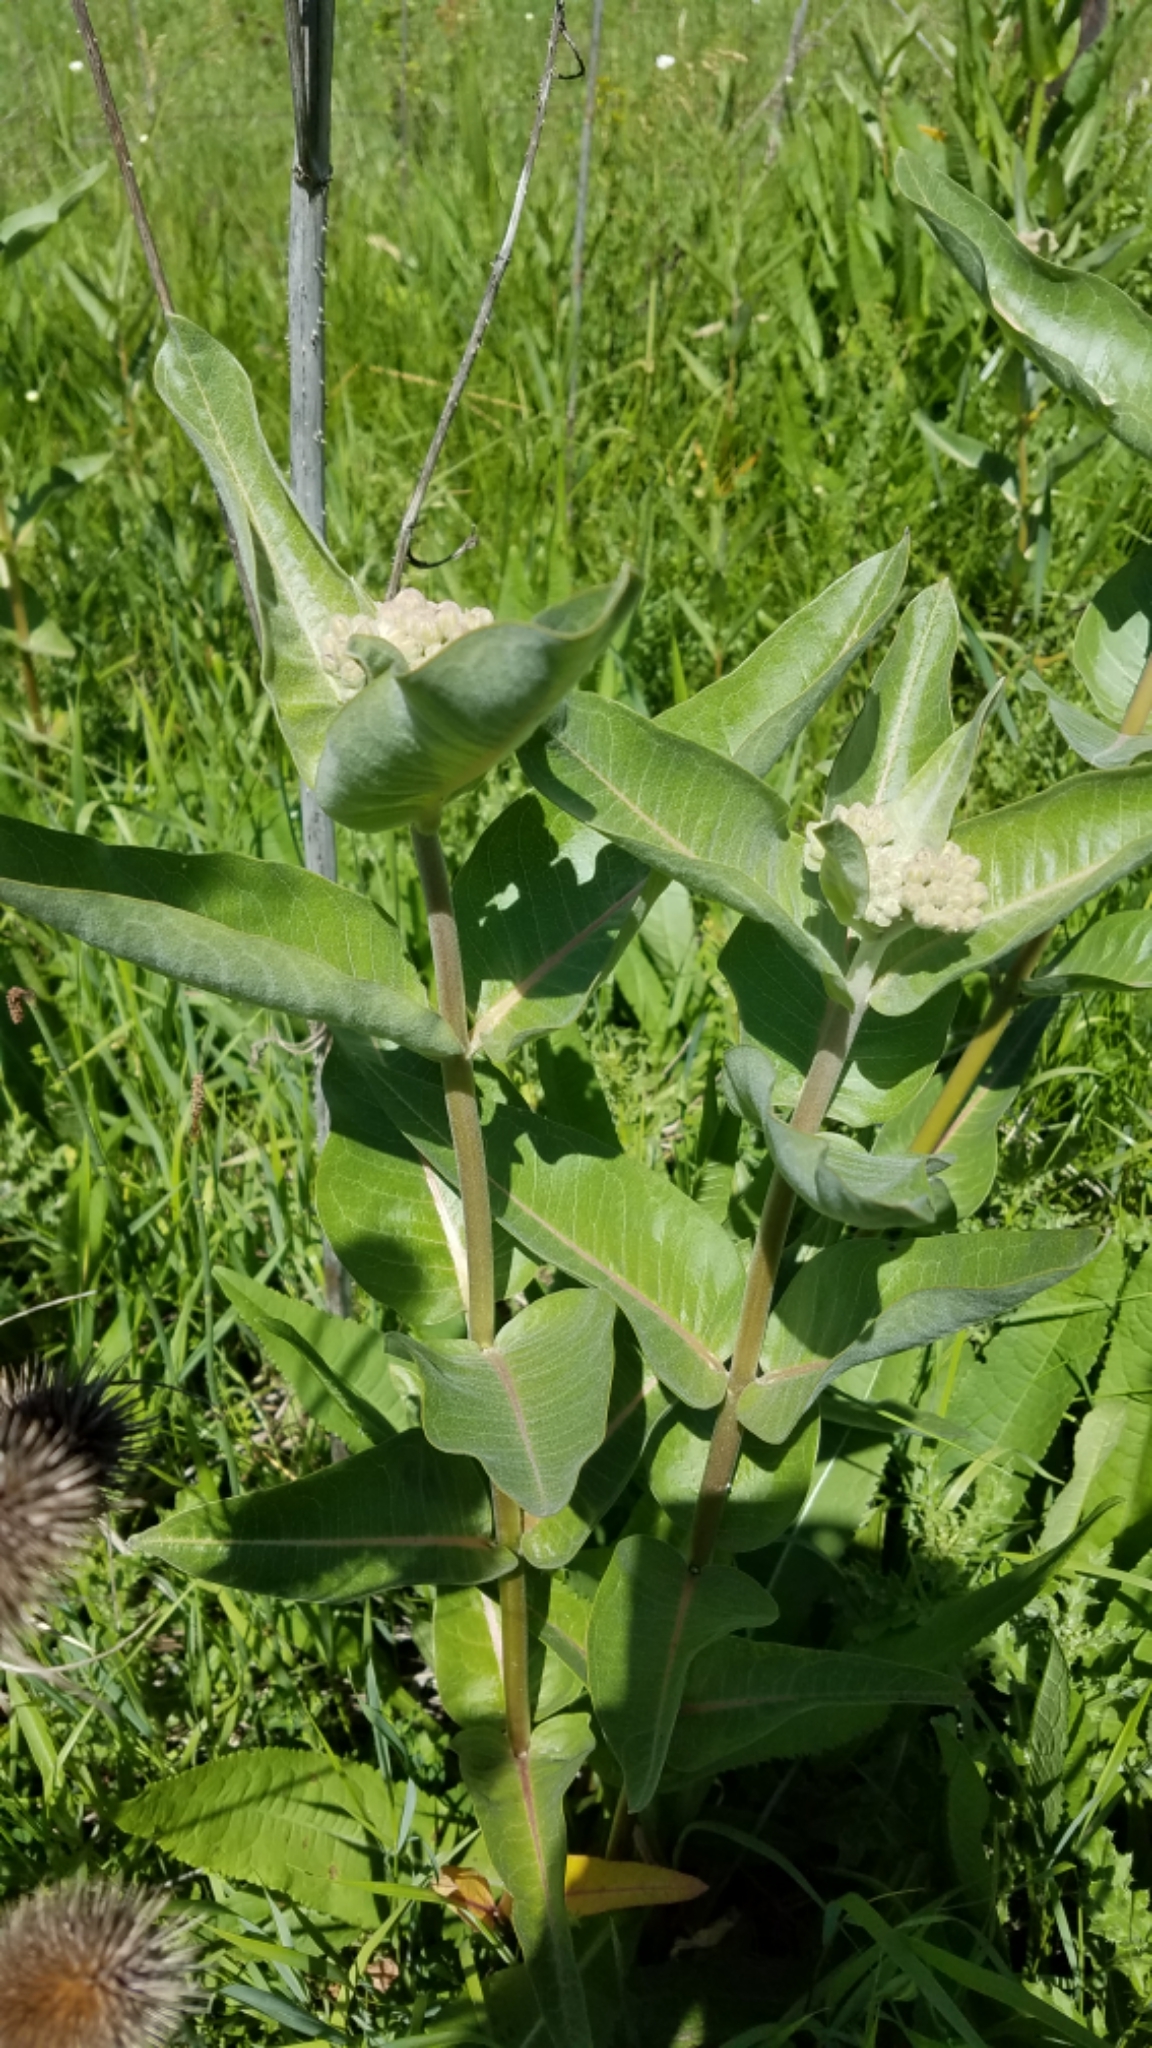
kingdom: Plantae
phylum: Tracheophyta
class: Magnoliopsida
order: Gentianales
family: Apocynaceae
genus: Asclepias
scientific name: Asclepias speciosa
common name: Showy milkweed
